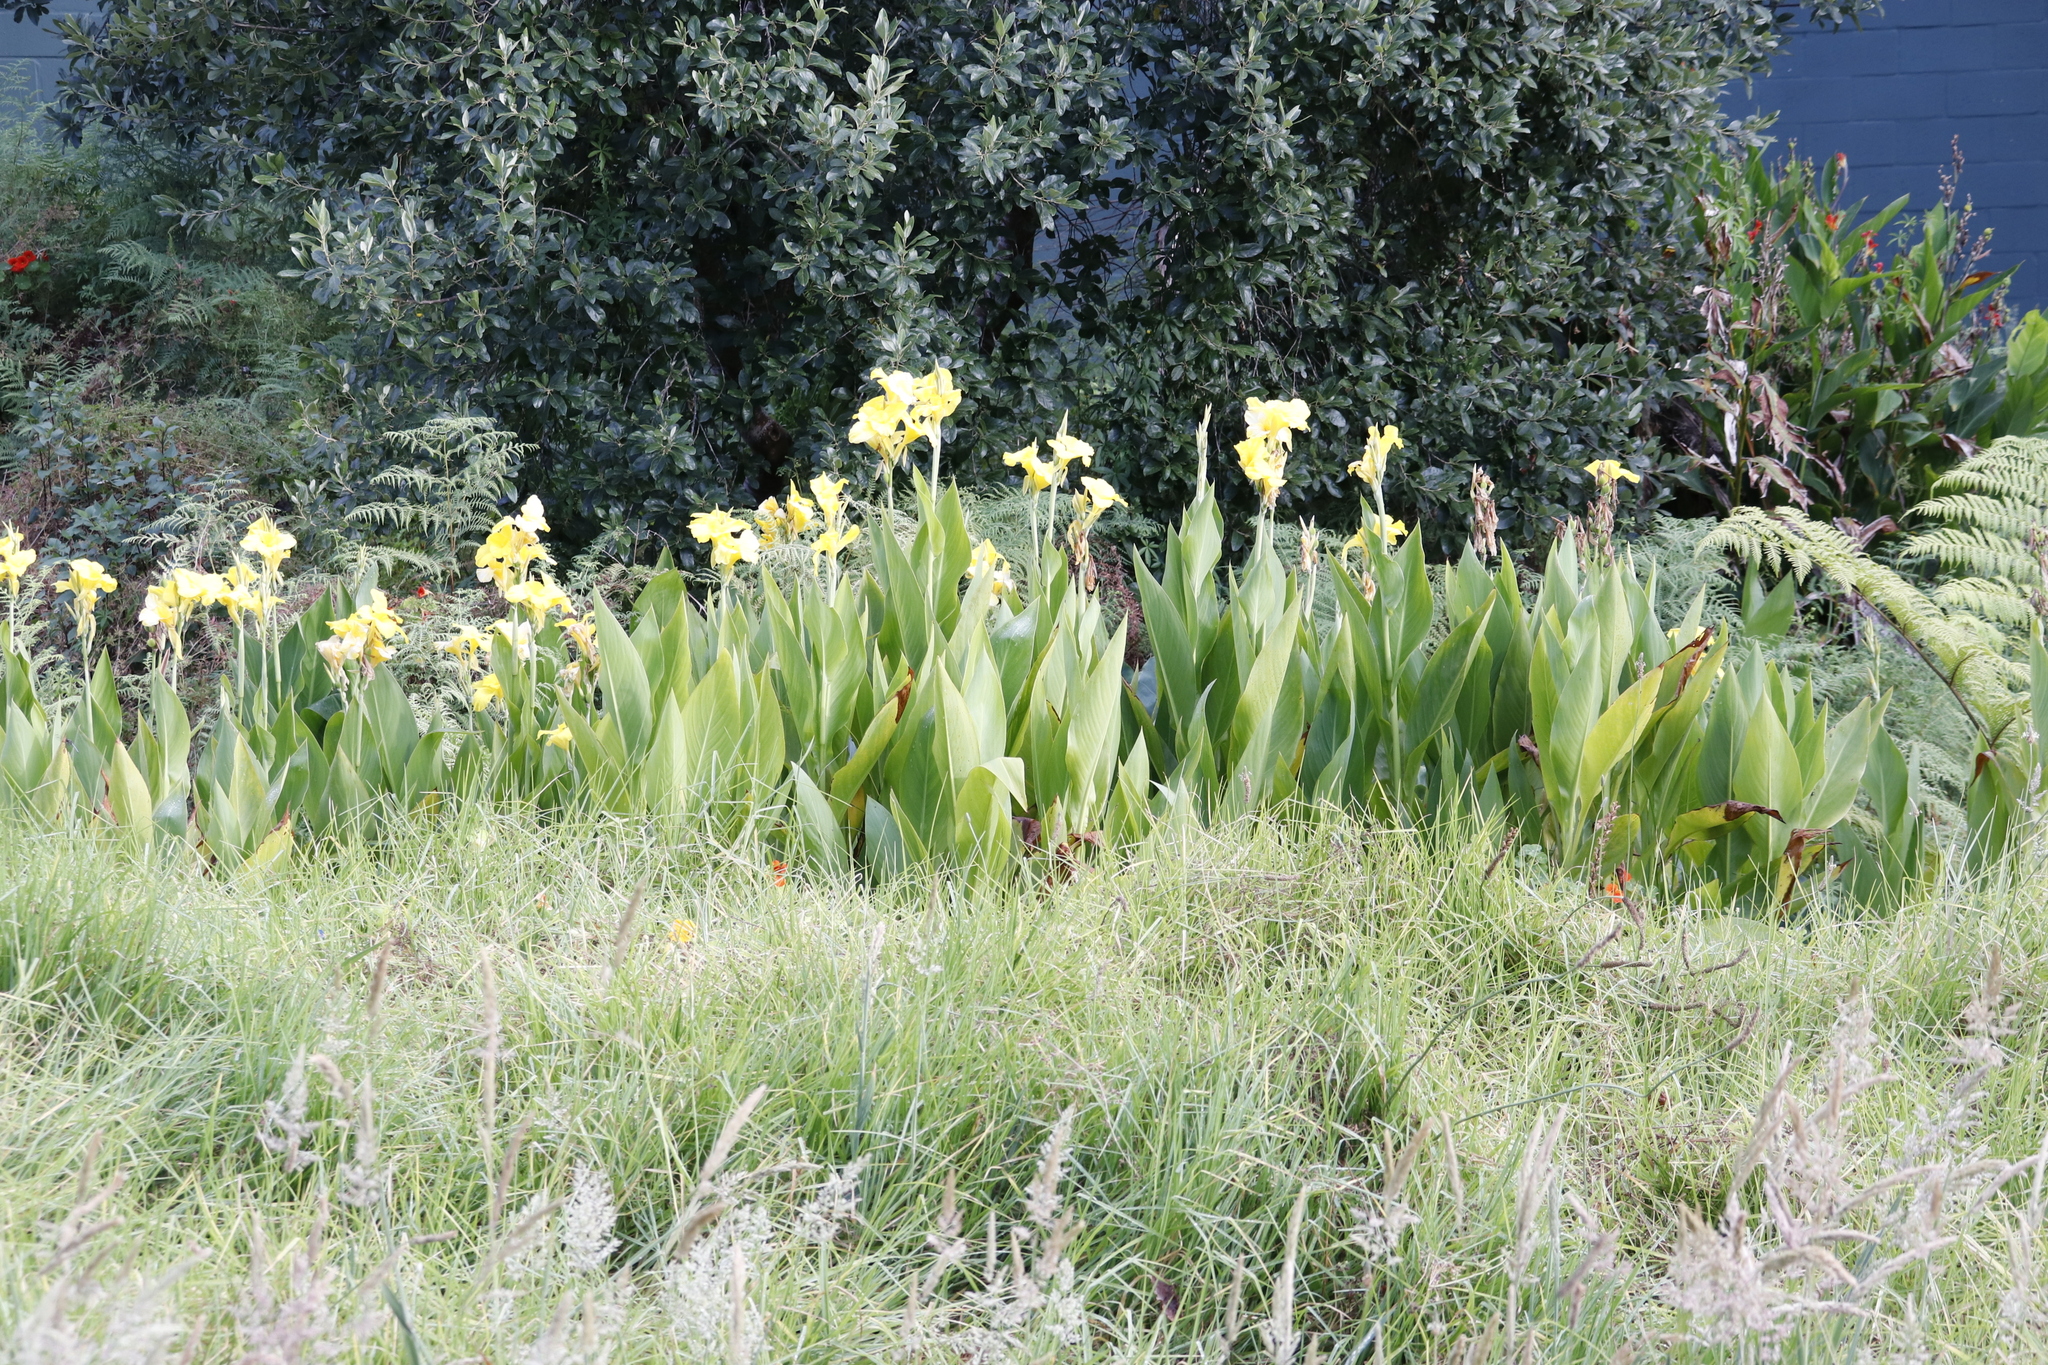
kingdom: Plantae
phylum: Tracheophyta
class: Liliopsida
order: Zingiberales
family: Cannaceae
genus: Canna
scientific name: Canna hybrida
